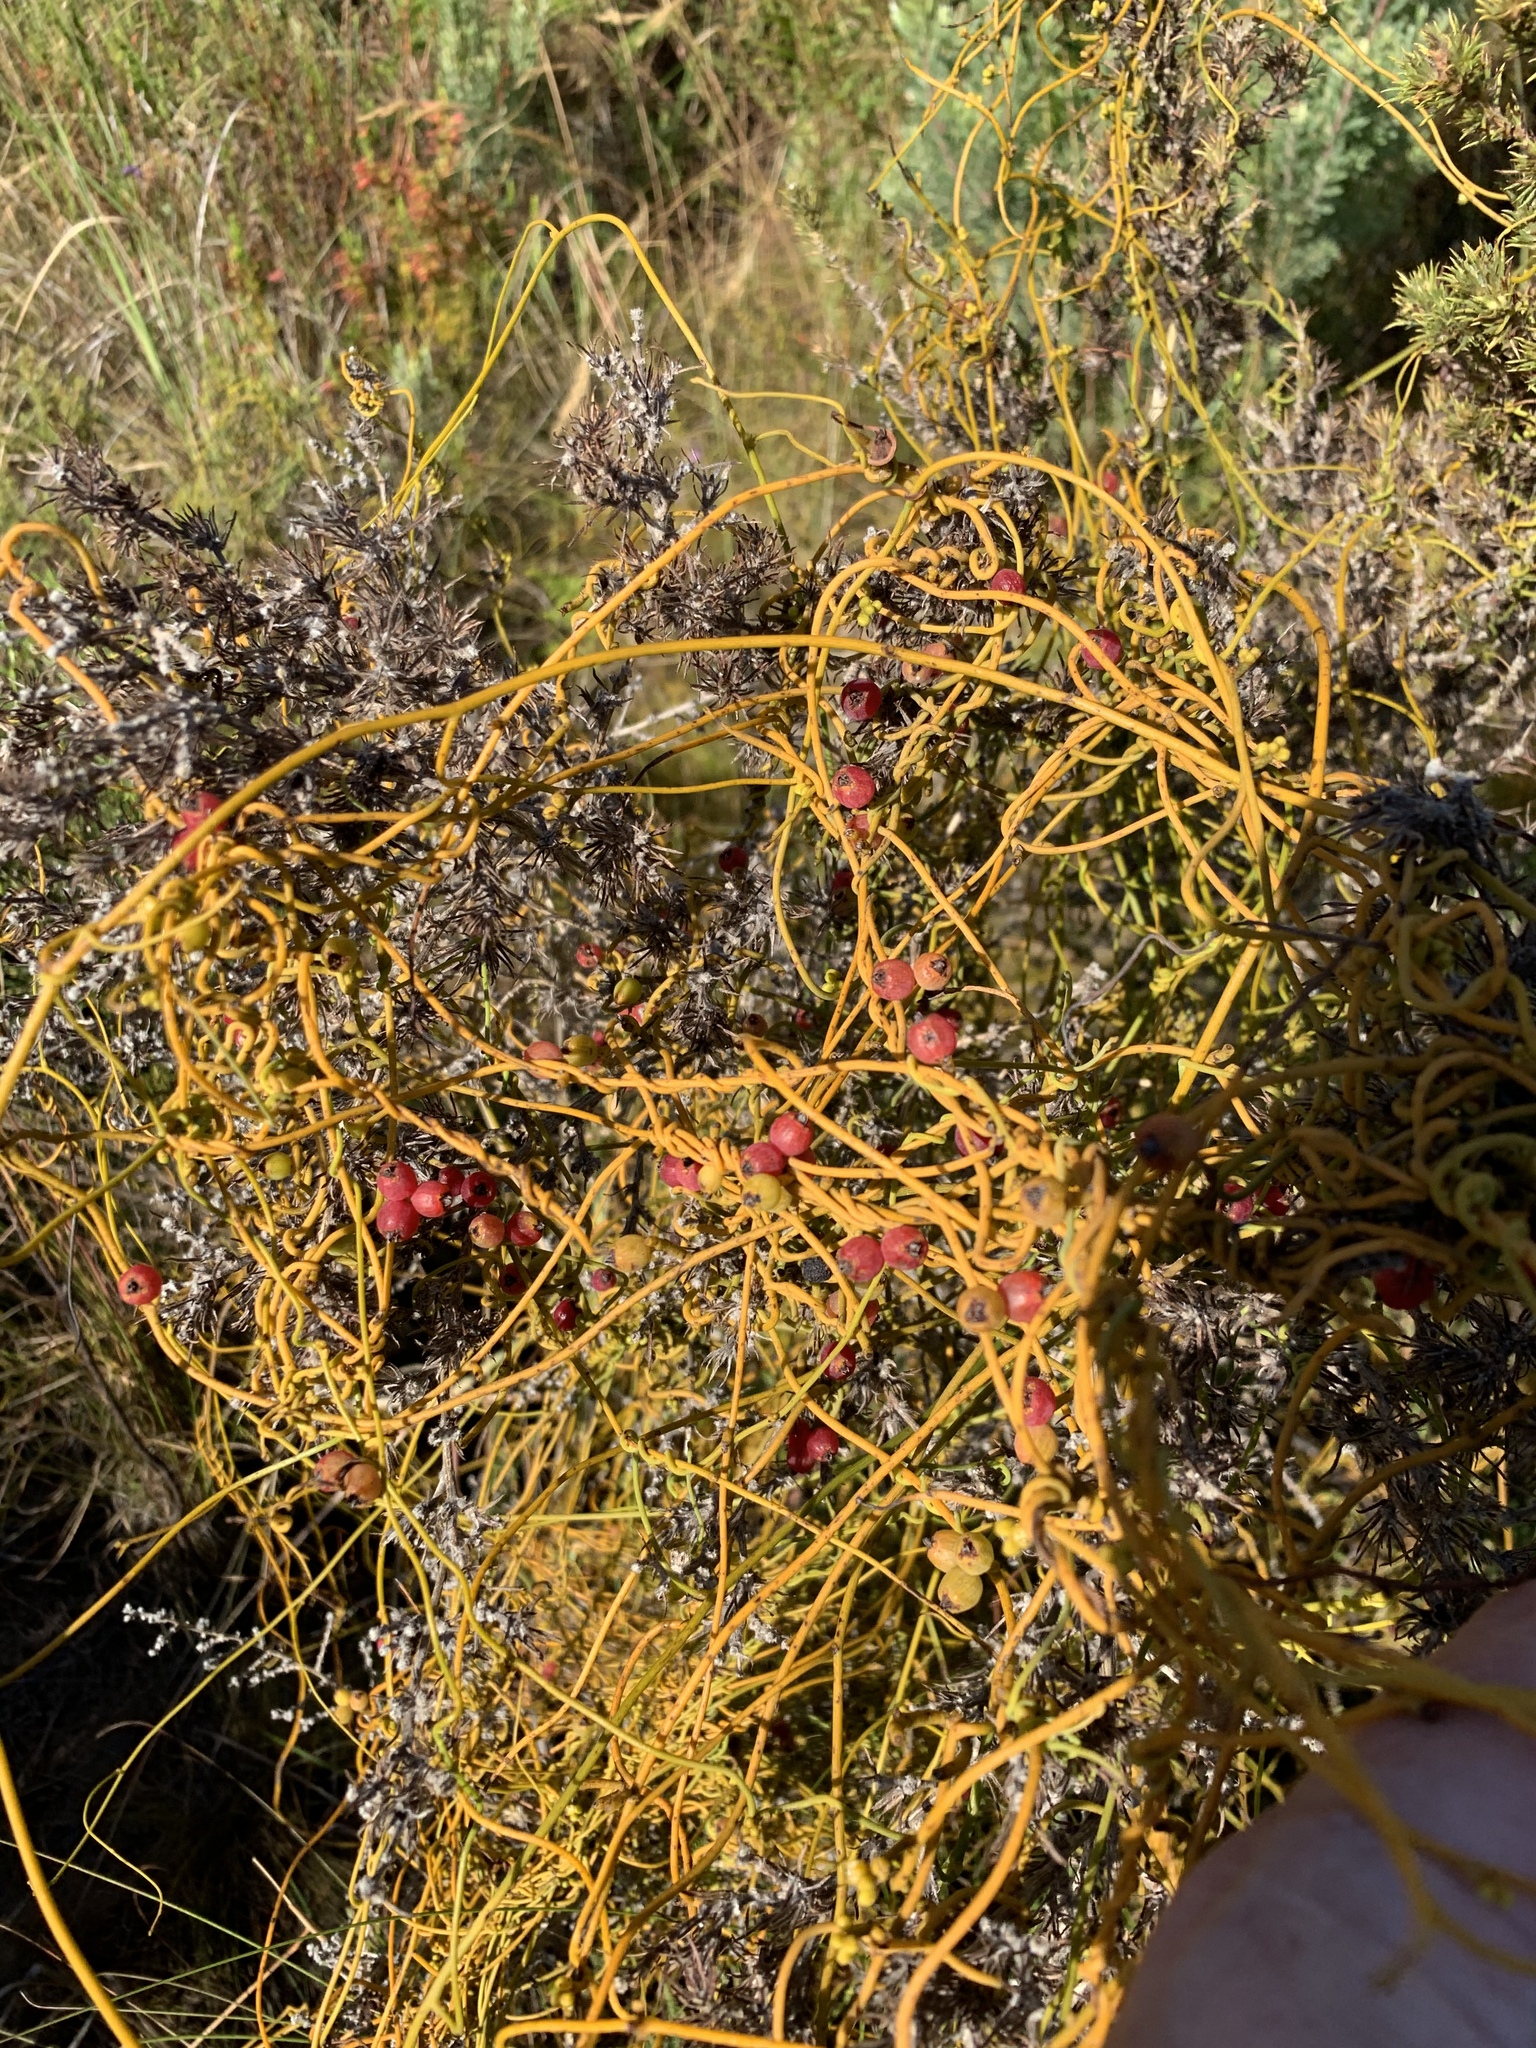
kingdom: Plantae
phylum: Tracheophyta
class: Magnoliopsida
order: Laurales
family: Lauraceae
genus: Cassytha
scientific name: Cassytha ciliolata
